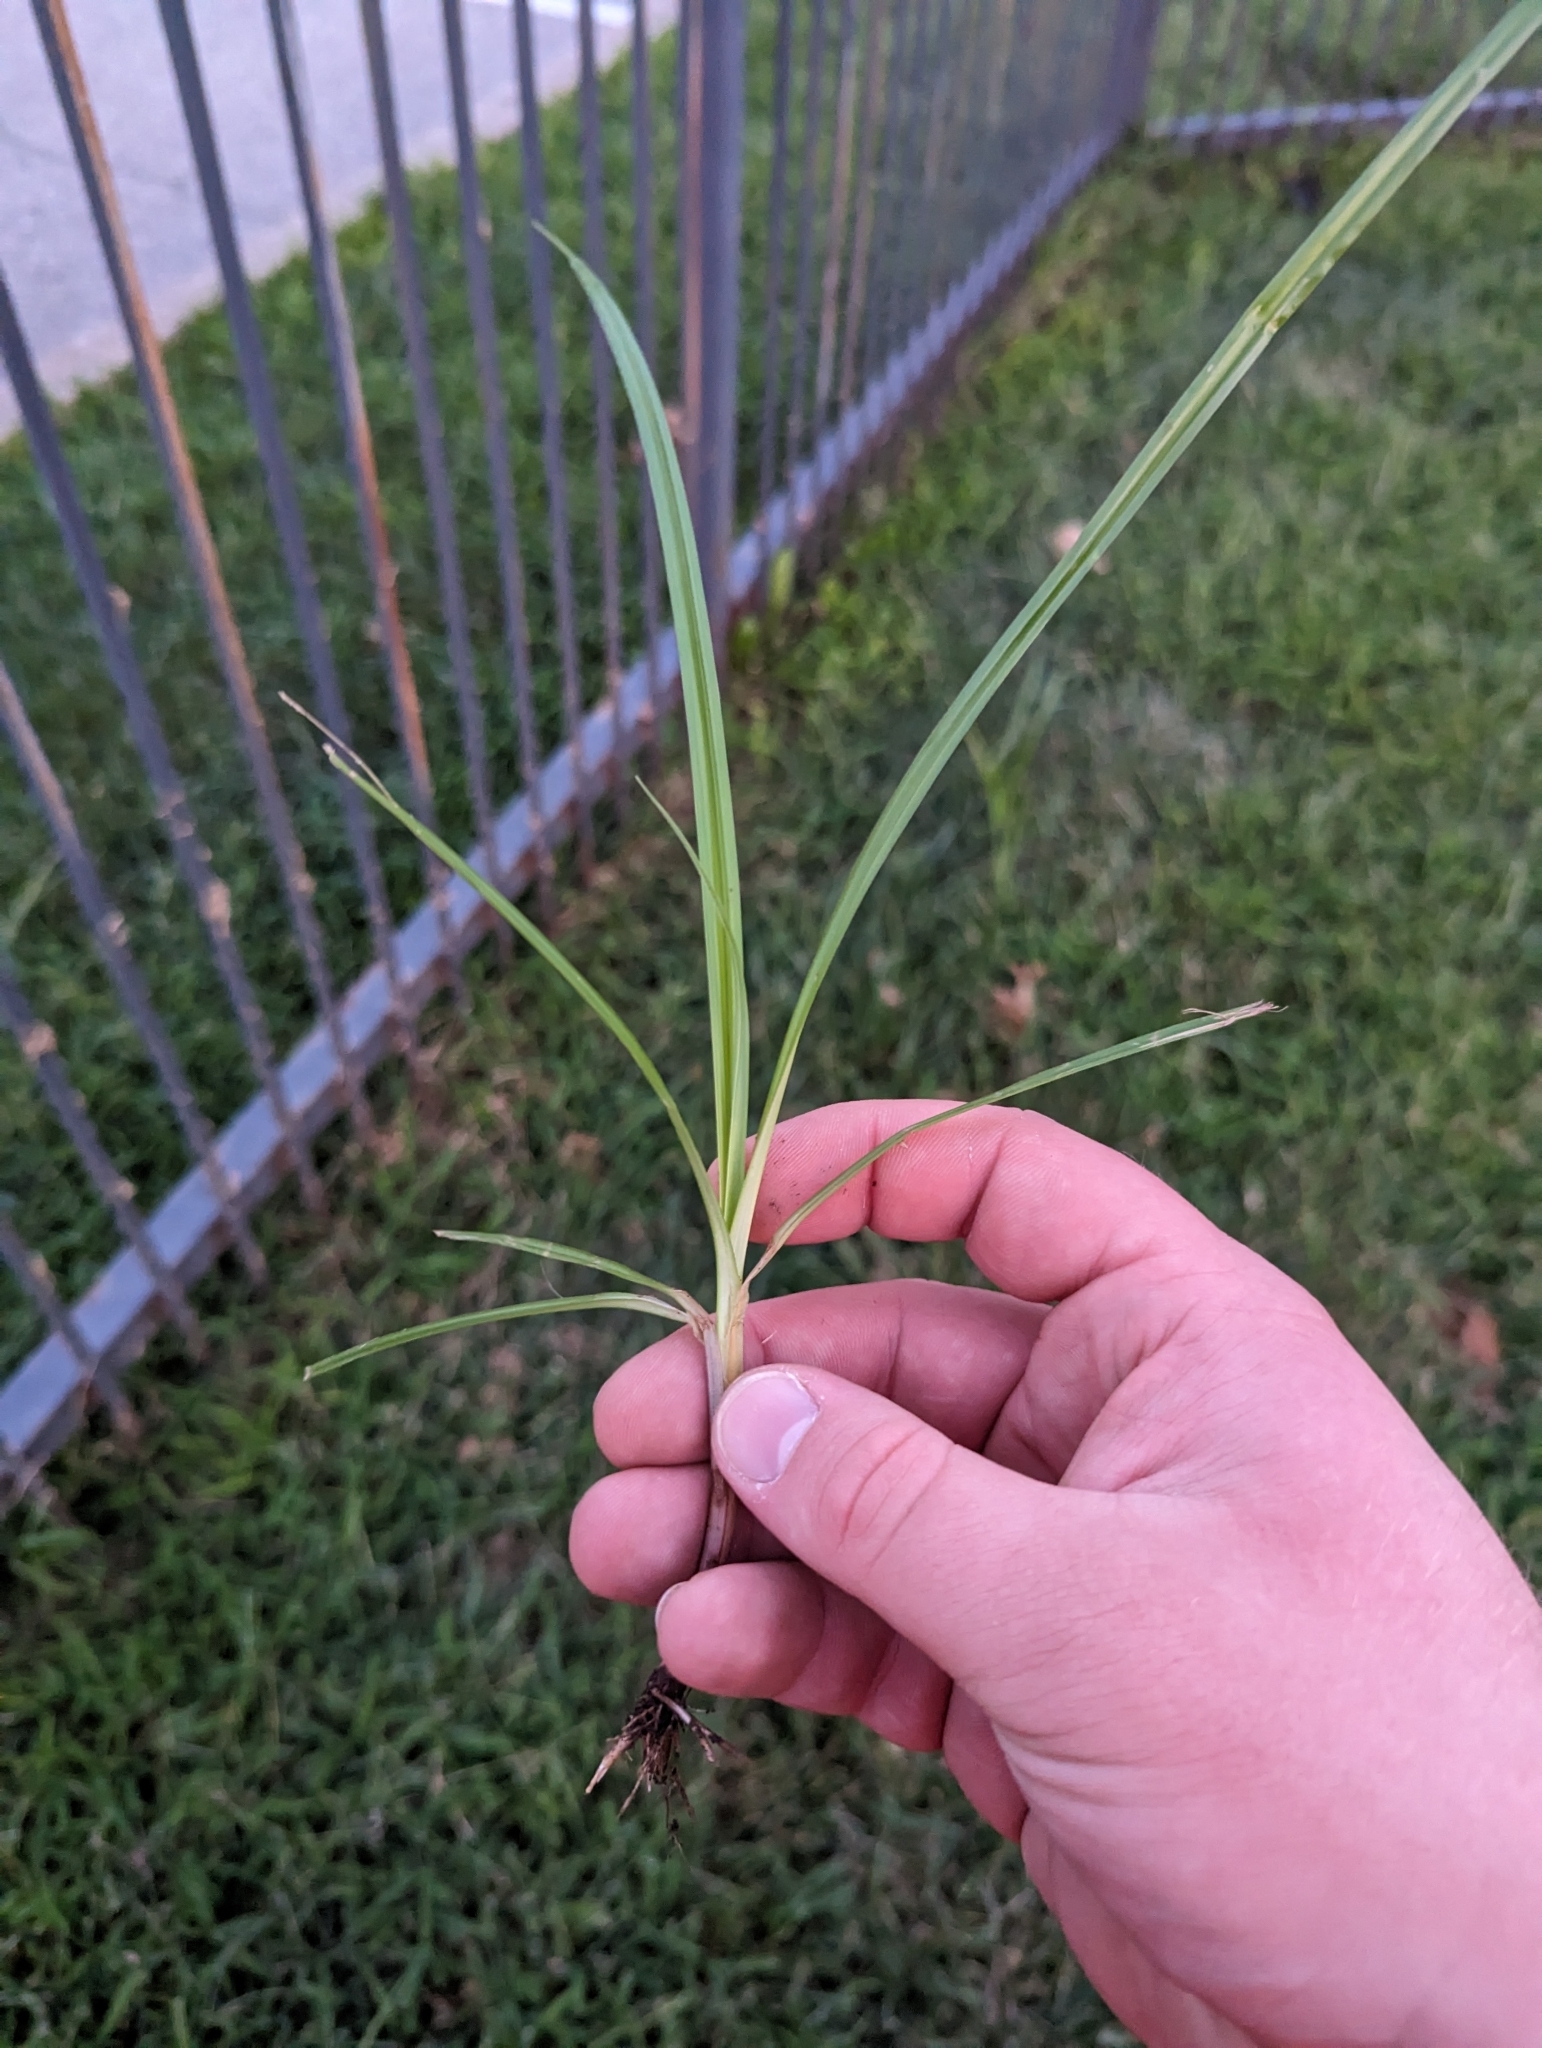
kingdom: Plantae
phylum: Tracheophyta
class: Liliopsida
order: Poales
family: Cyperaceae
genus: Cyperus
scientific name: Cyperus esculentus
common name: Yellow nutsedge
